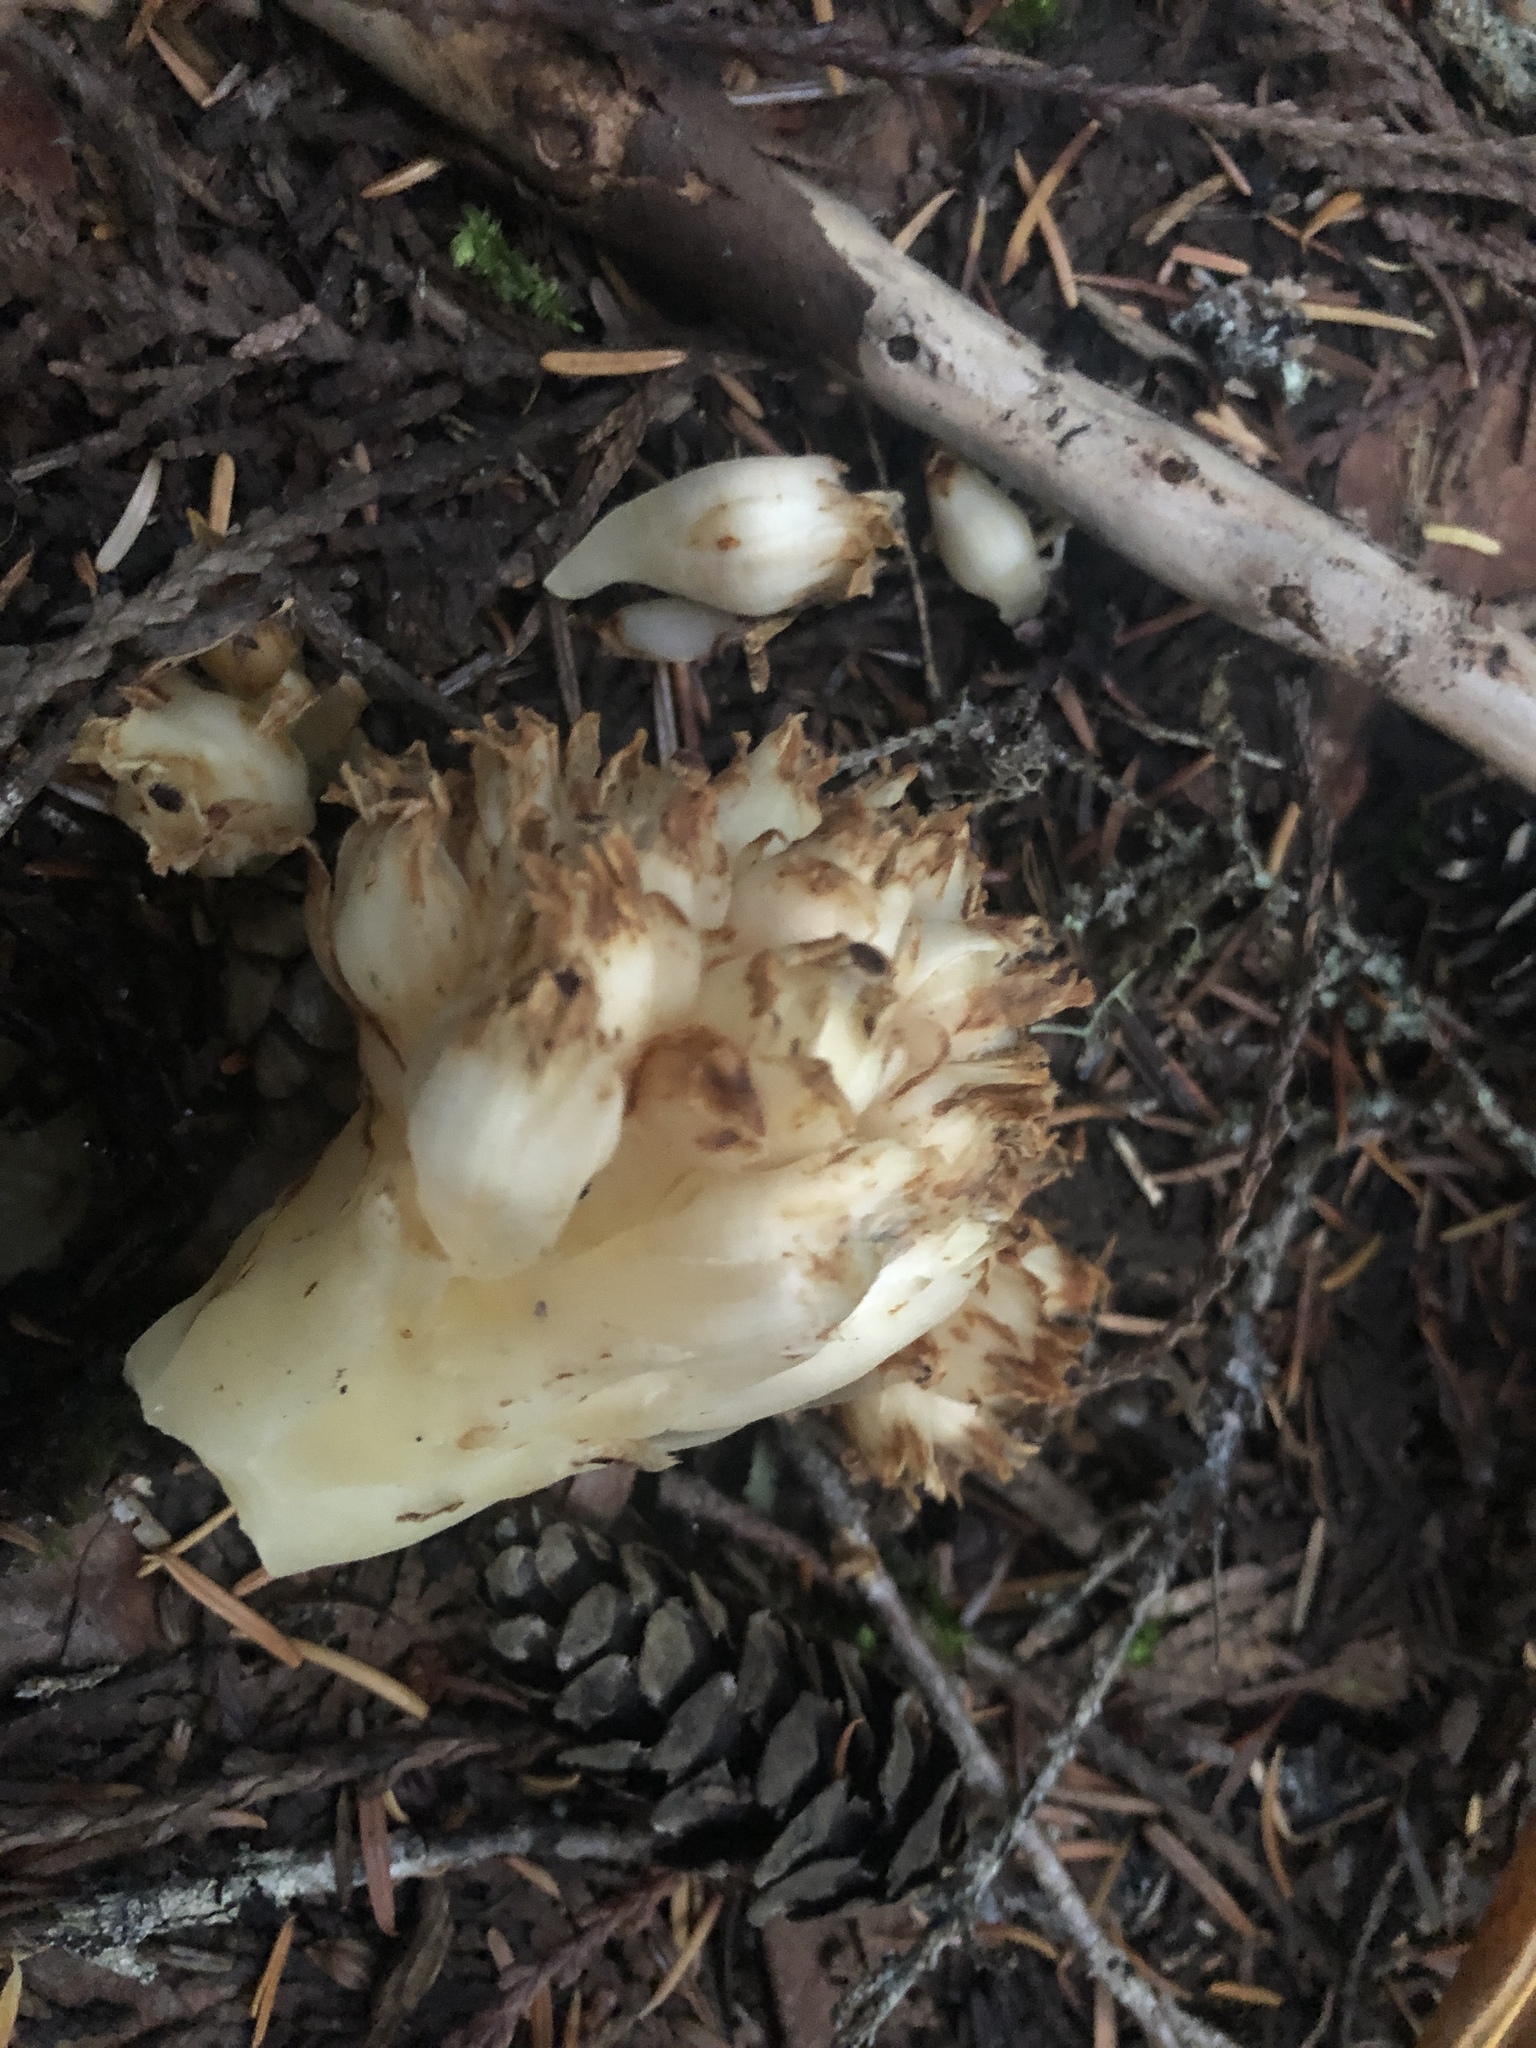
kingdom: Plantae
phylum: Tracheophyta
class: Magnoliopsida
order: Ericales
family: Ericaceae
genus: Hemitomes
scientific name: Hemitomes congestum
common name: Cone plant
